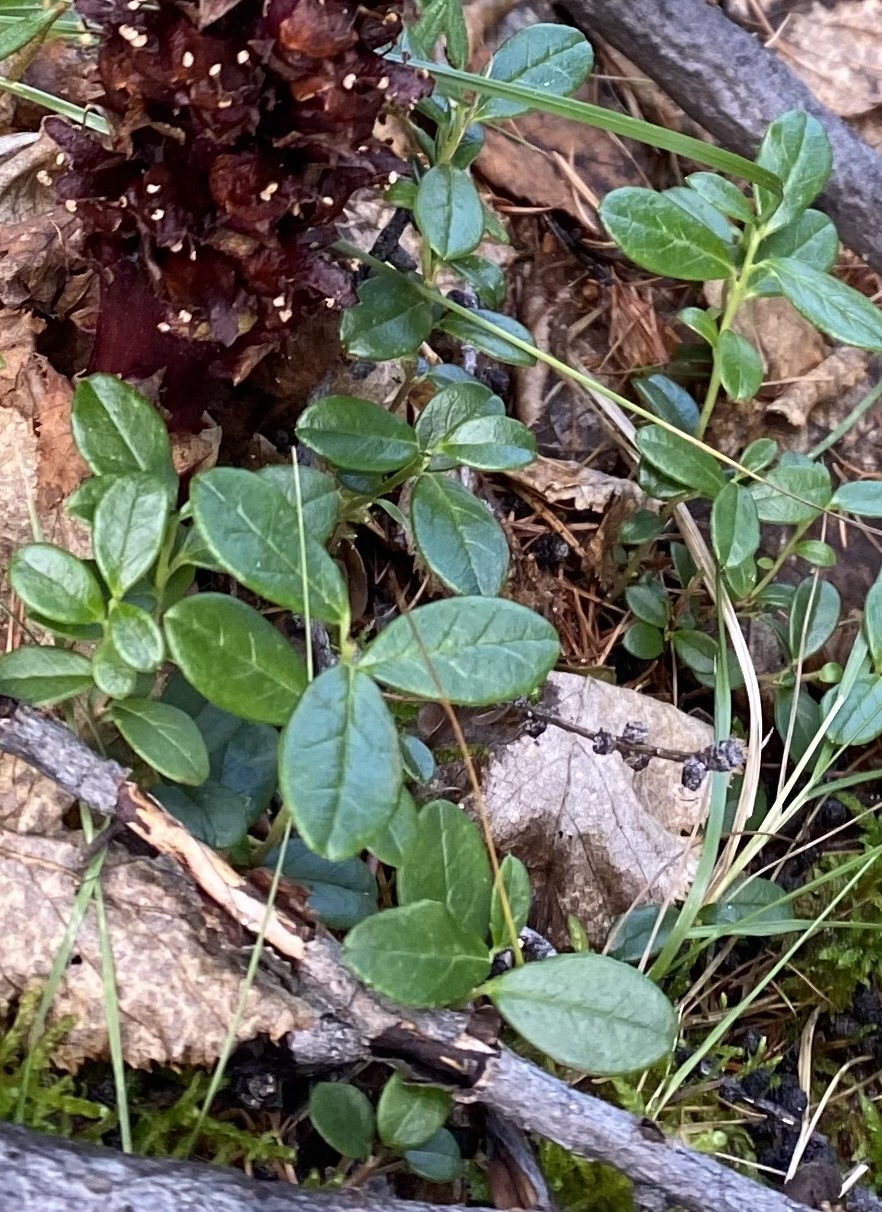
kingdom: Plantae
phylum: Tracheophyta
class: Magnoliopsida
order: Ericales
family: Ericaceae
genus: Vaccinium
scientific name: Vaccinium vitis-idaea
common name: Cowberry
